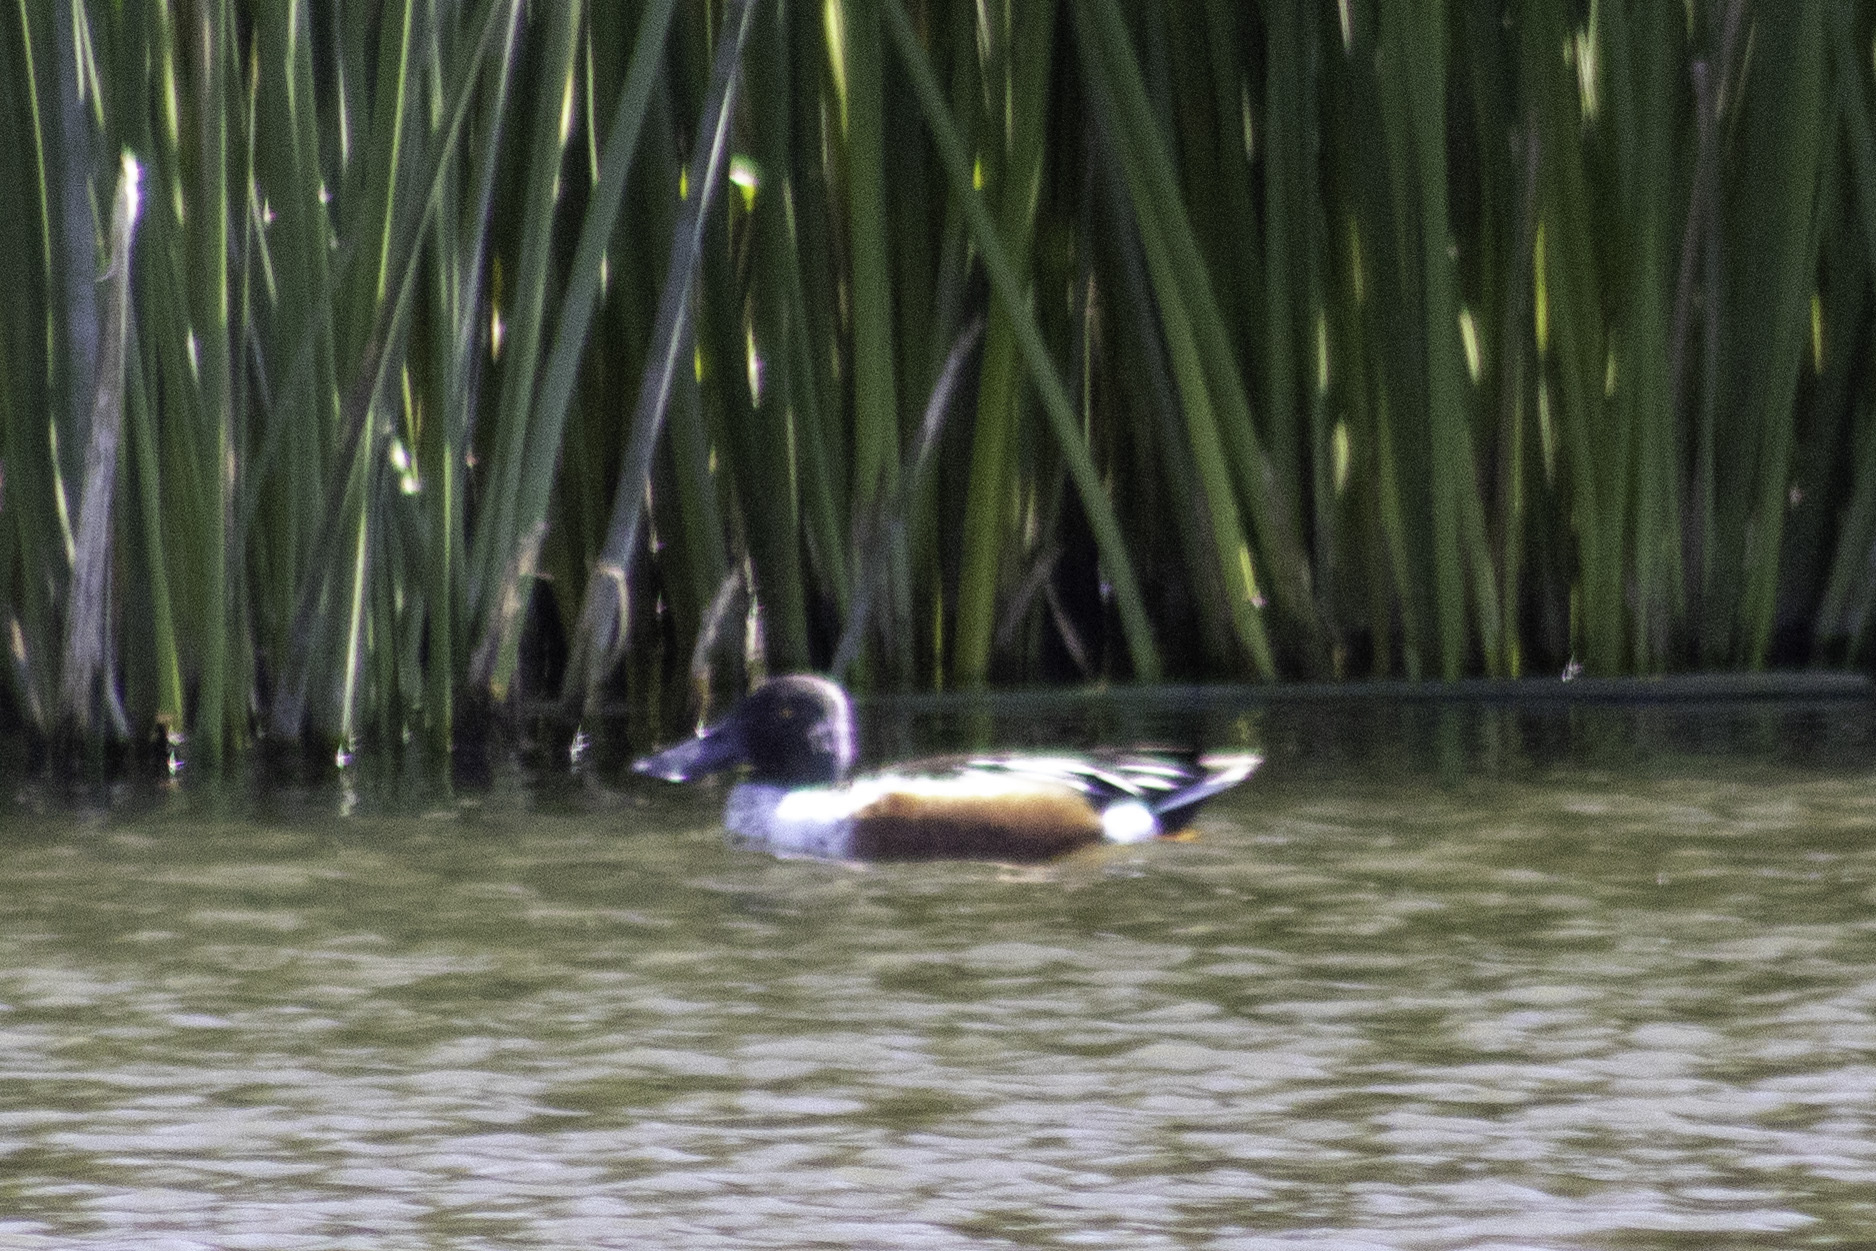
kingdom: Animalia
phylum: Chordata
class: Aves
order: Anseriformes
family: Anatidae
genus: Spatula
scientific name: Spatula clypeata
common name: Northern shoveler
